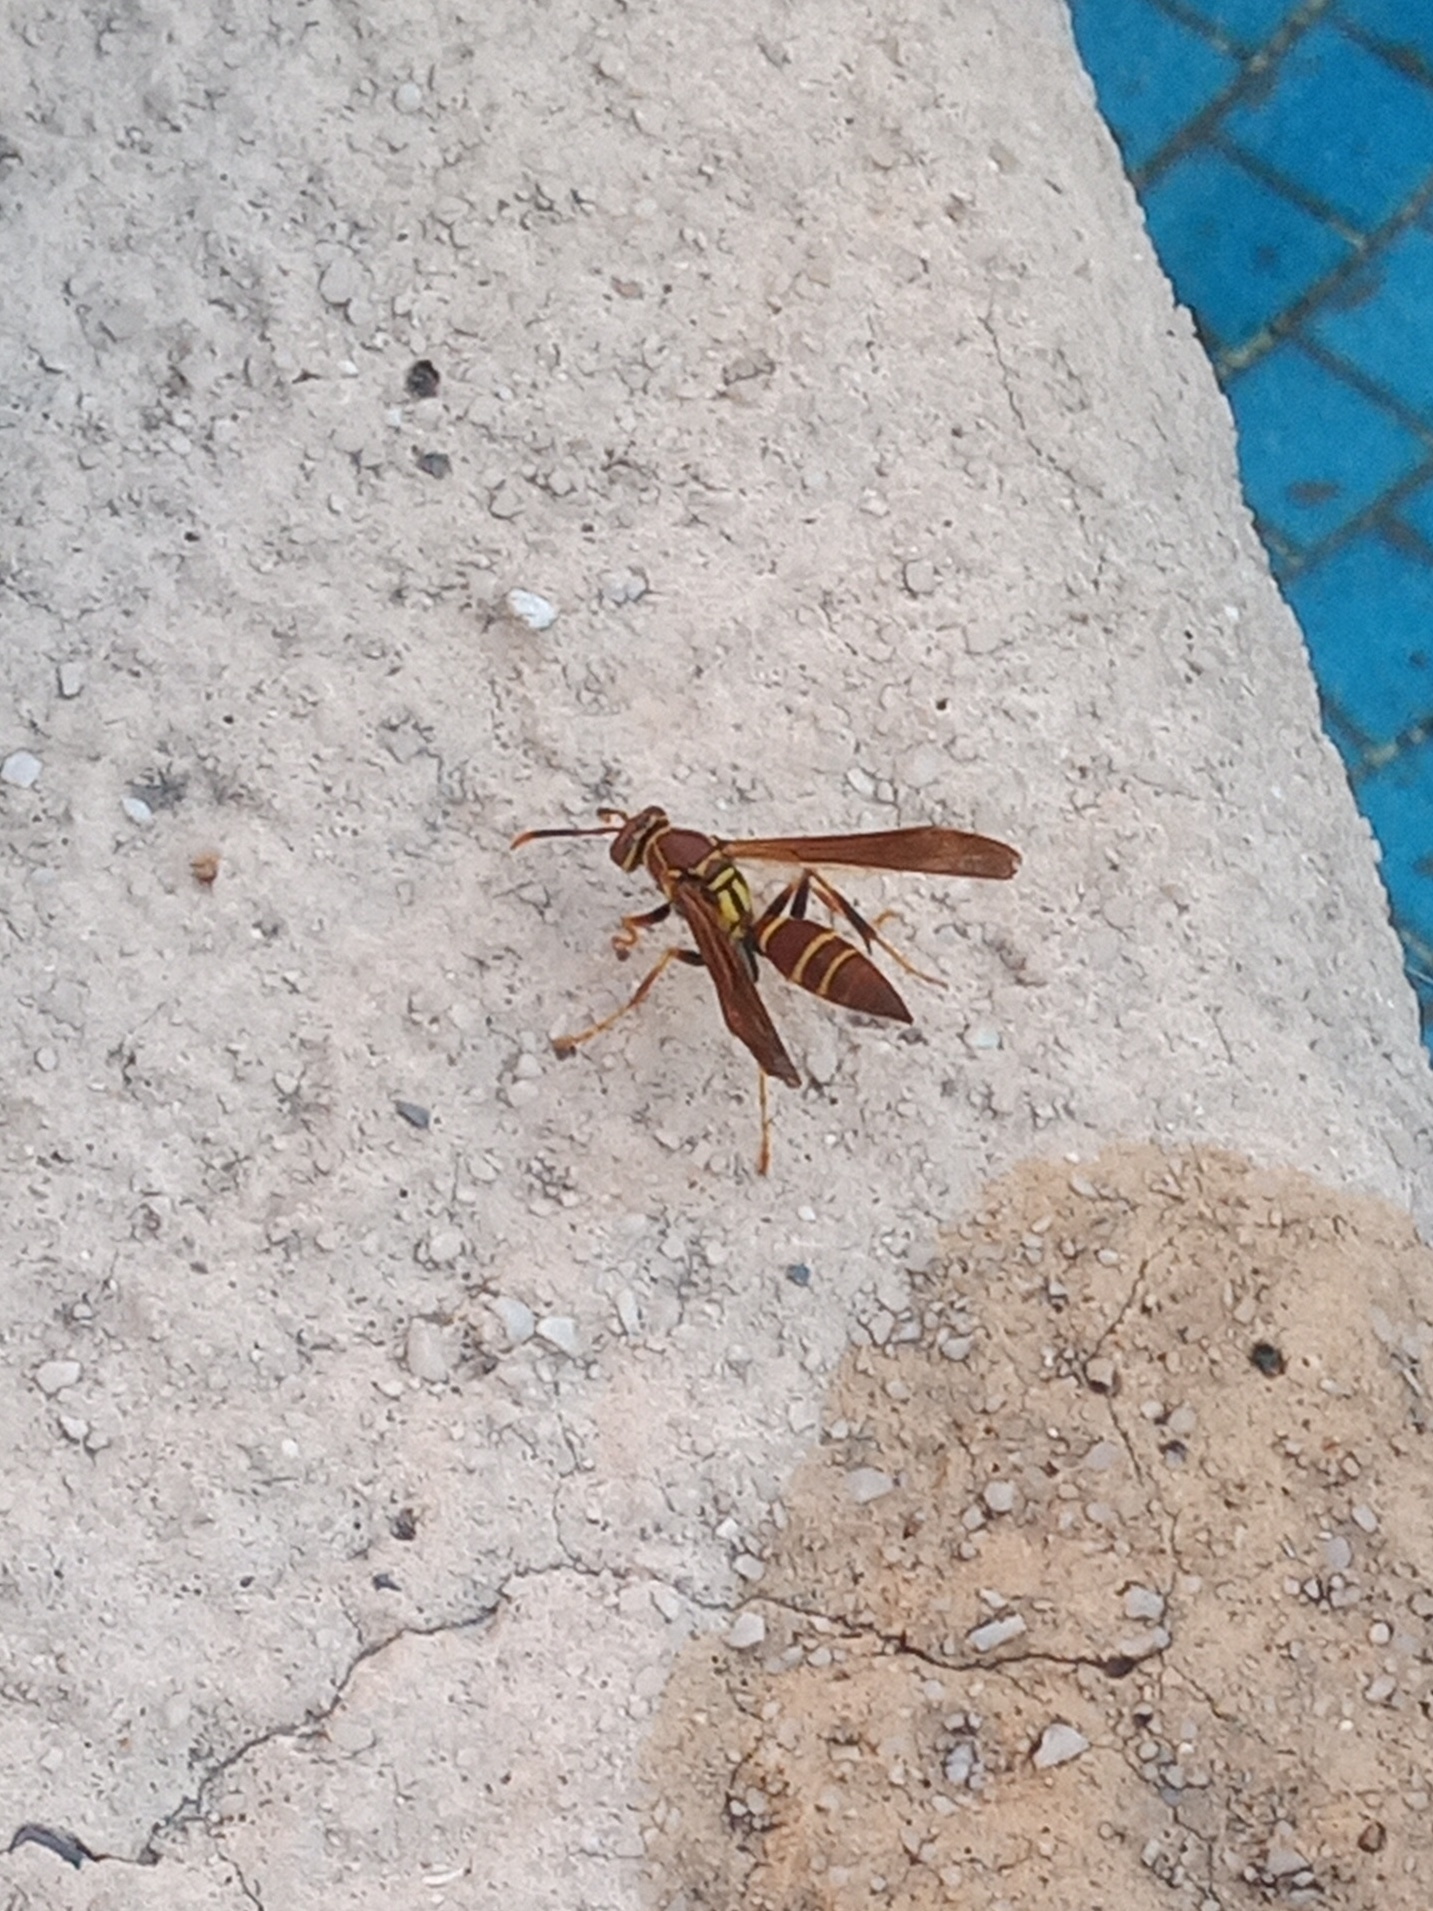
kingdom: Animalia
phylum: Arthropoda
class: Insecta
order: Hymenoptera
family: Eumenidae
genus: Polistes
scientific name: Polistes instabilis
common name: Unstable paper wasp
